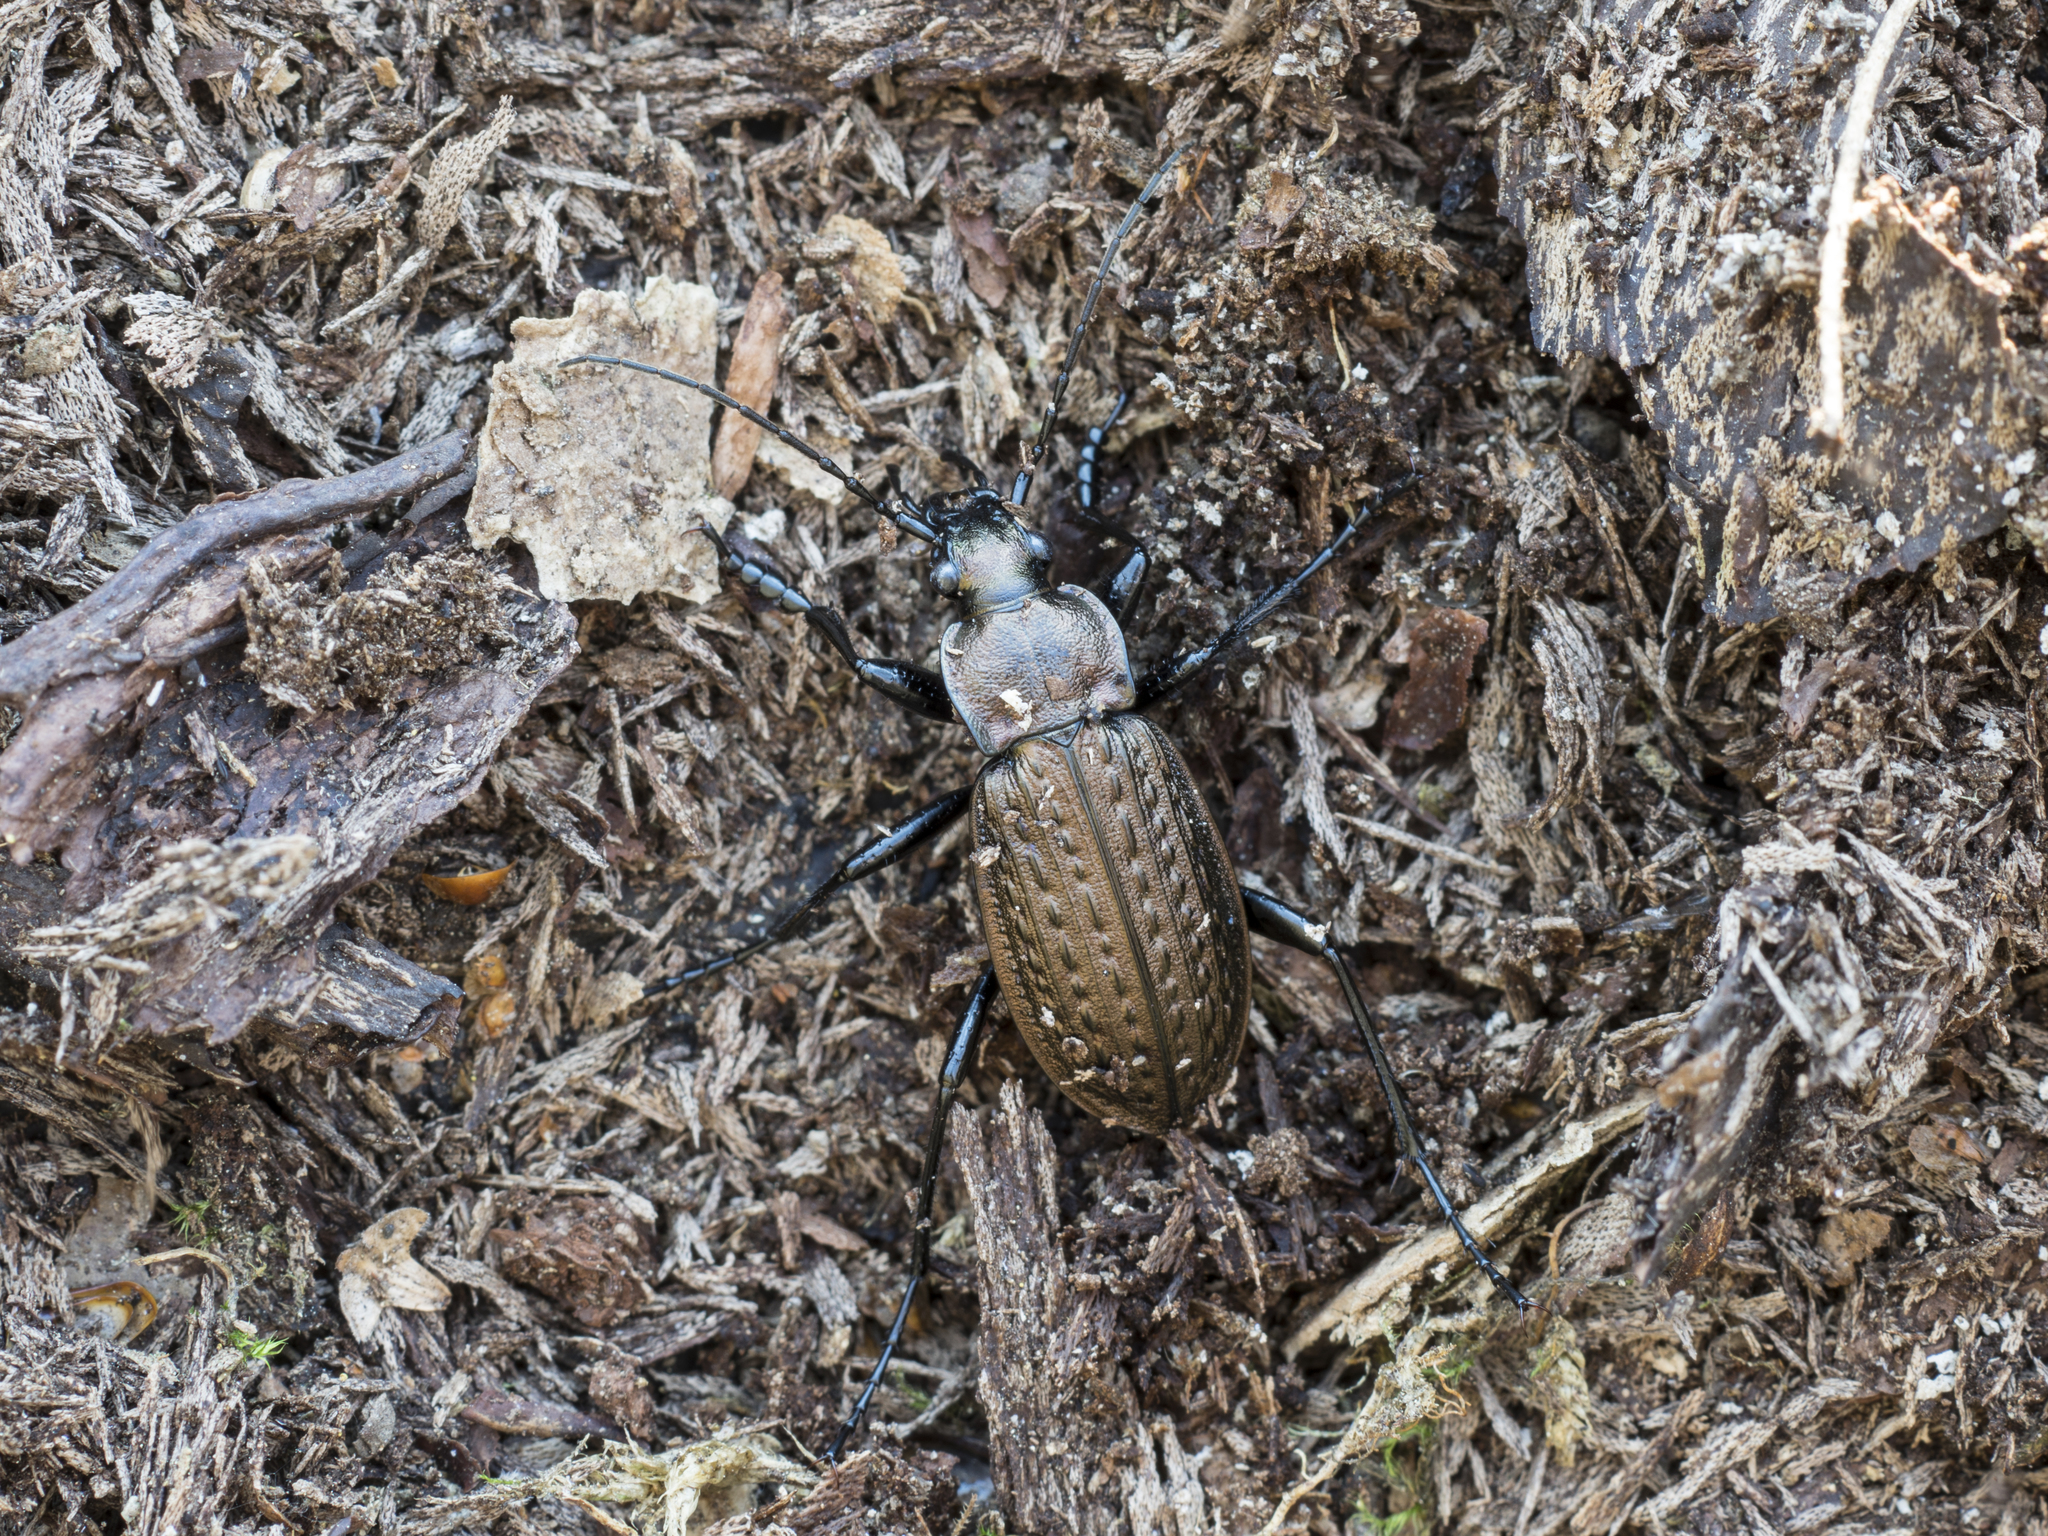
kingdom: Animalia
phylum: Arthropoda
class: Insecta
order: Coleoptera
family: Carabidae
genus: Carabus
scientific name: Carabus granulatus
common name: Granulate ground beetle
